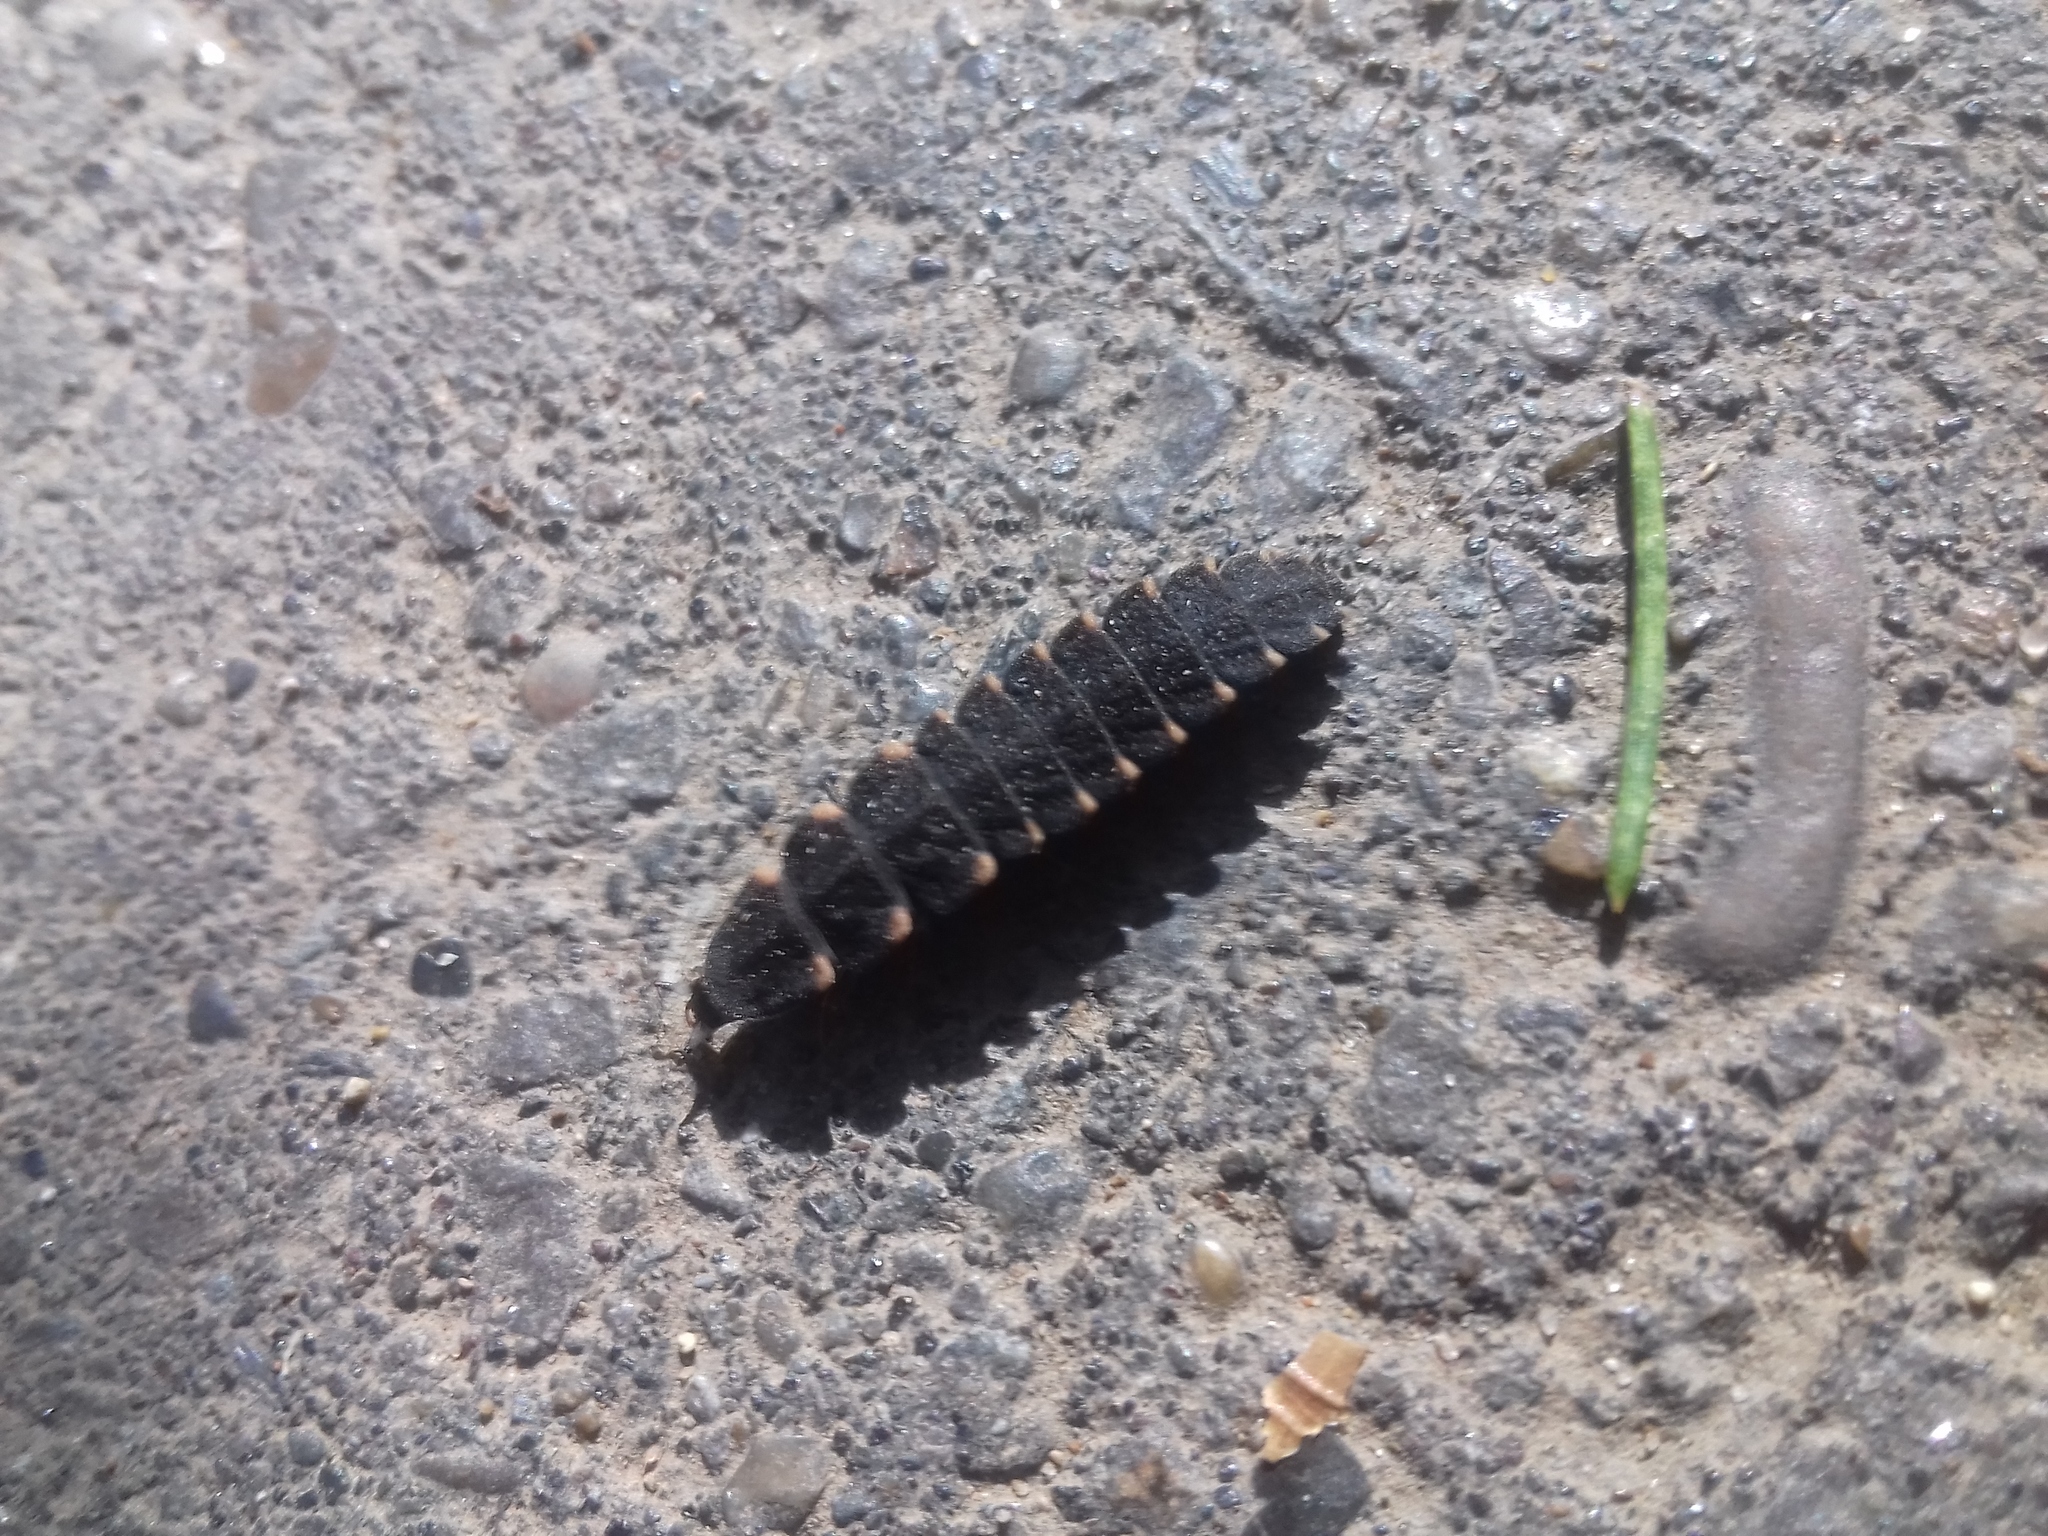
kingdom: Animalia
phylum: Arthropoda
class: Insecta
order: Coleoptera
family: Lampyridae
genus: Lampyris
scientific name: Lampyris noctiluca
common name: Glow-worm
